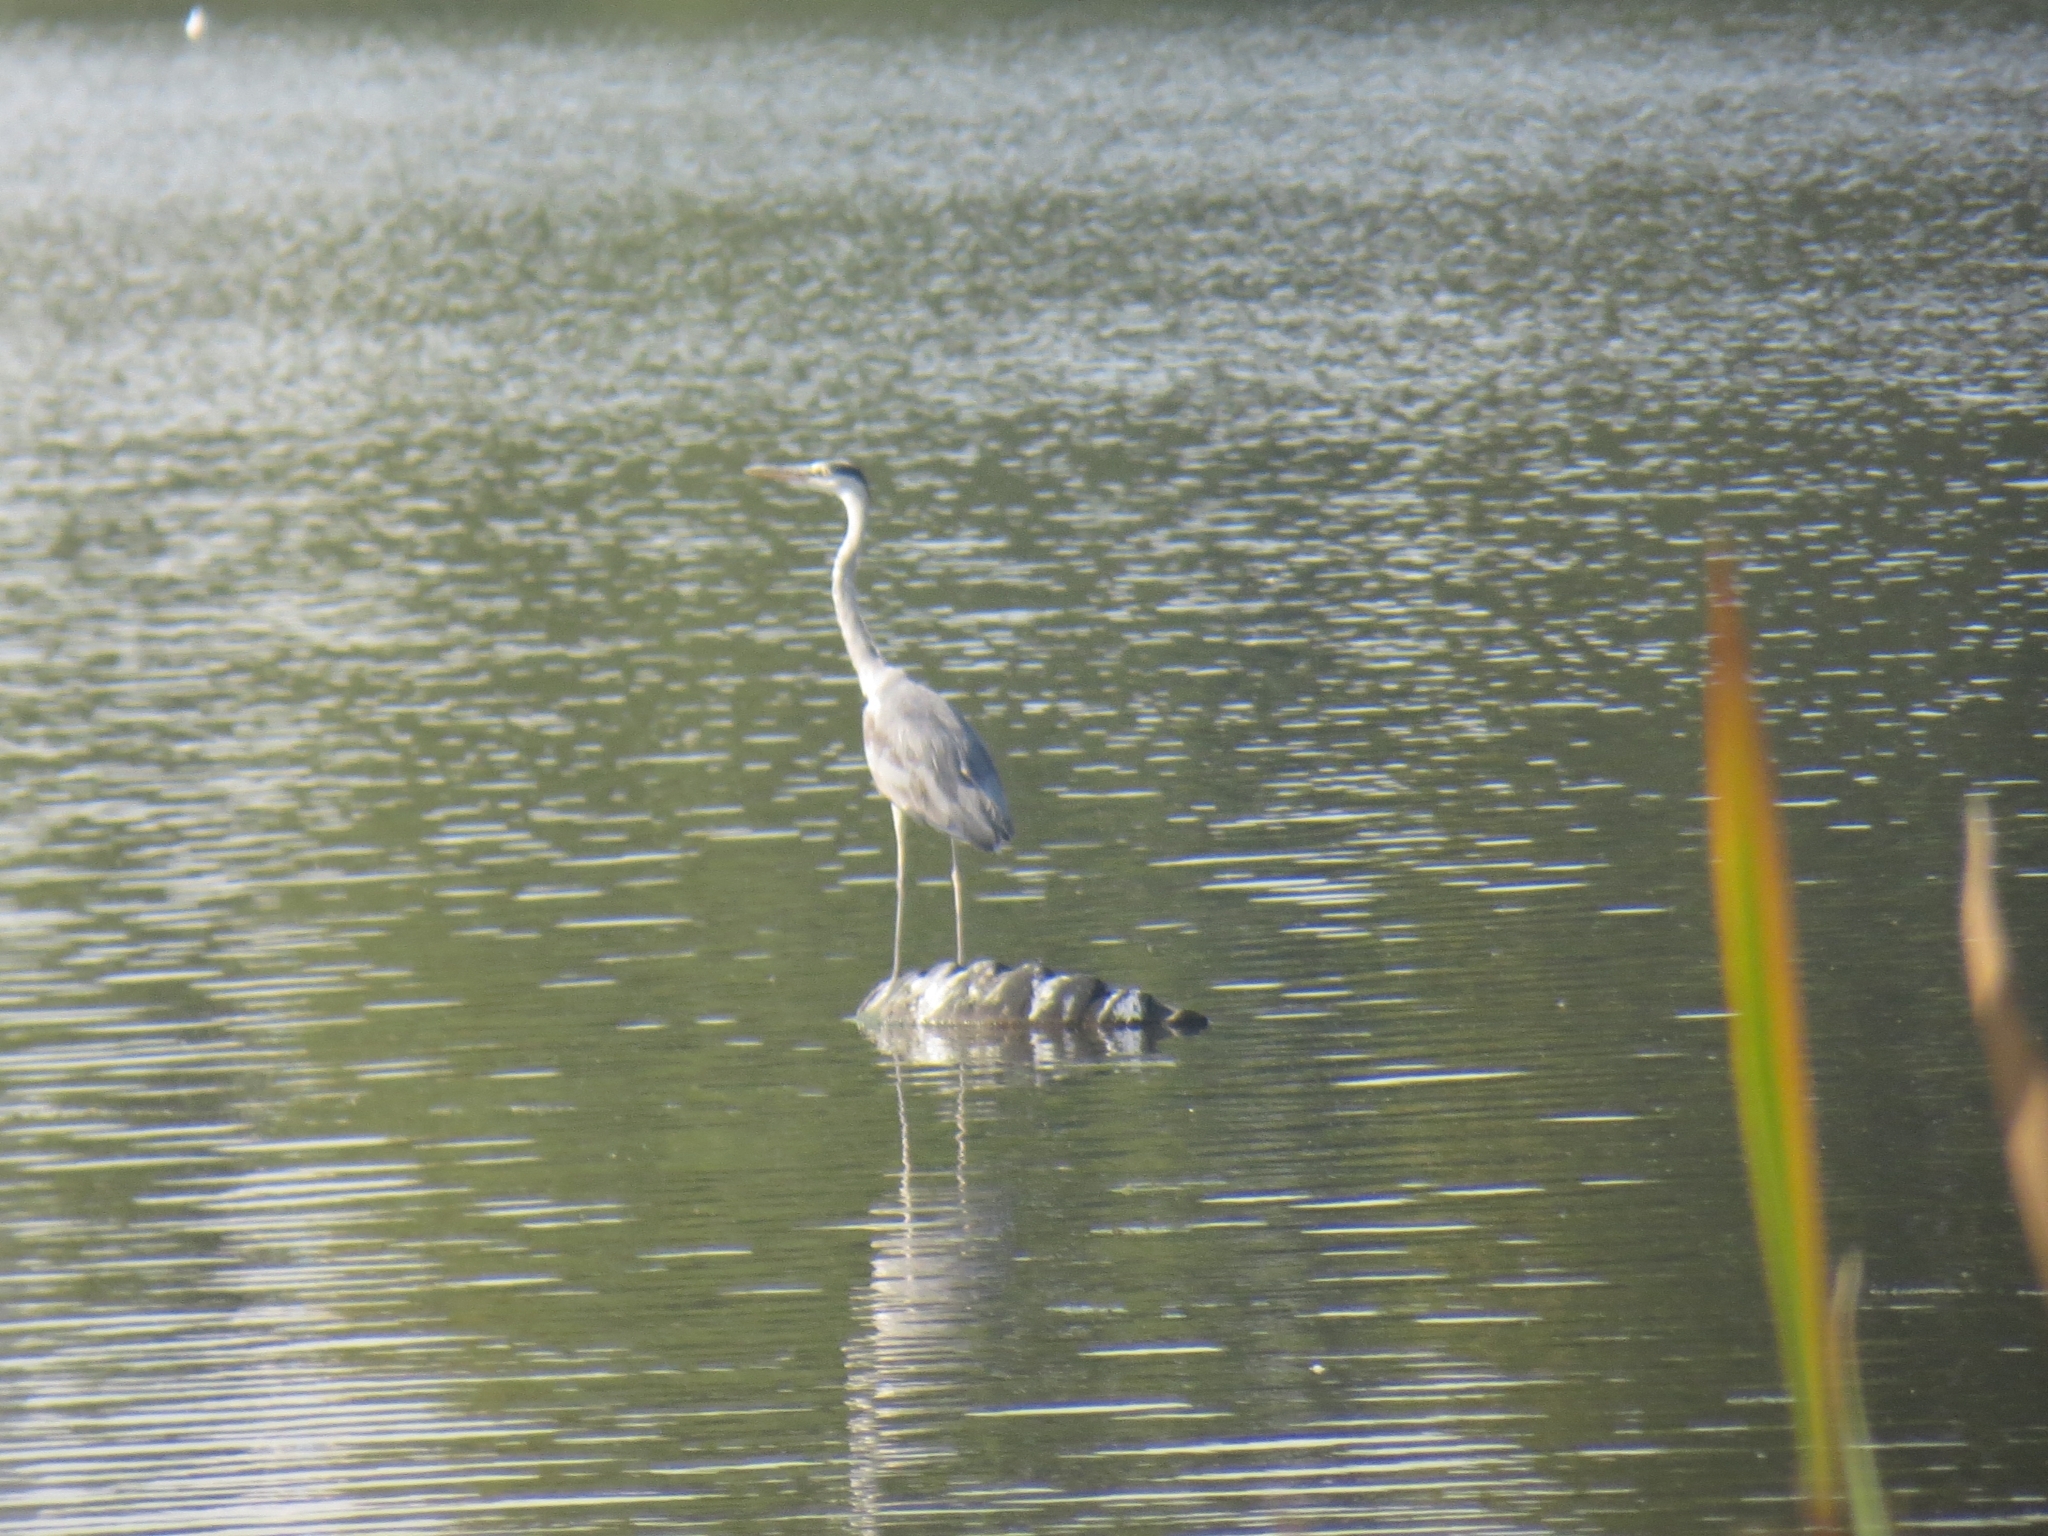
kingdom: Animalia
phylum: Chordata
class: Aves
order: Pelecaniformes
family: Ardeidae
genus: Ardea
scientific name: Ardea cinerea
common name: Grey heron
